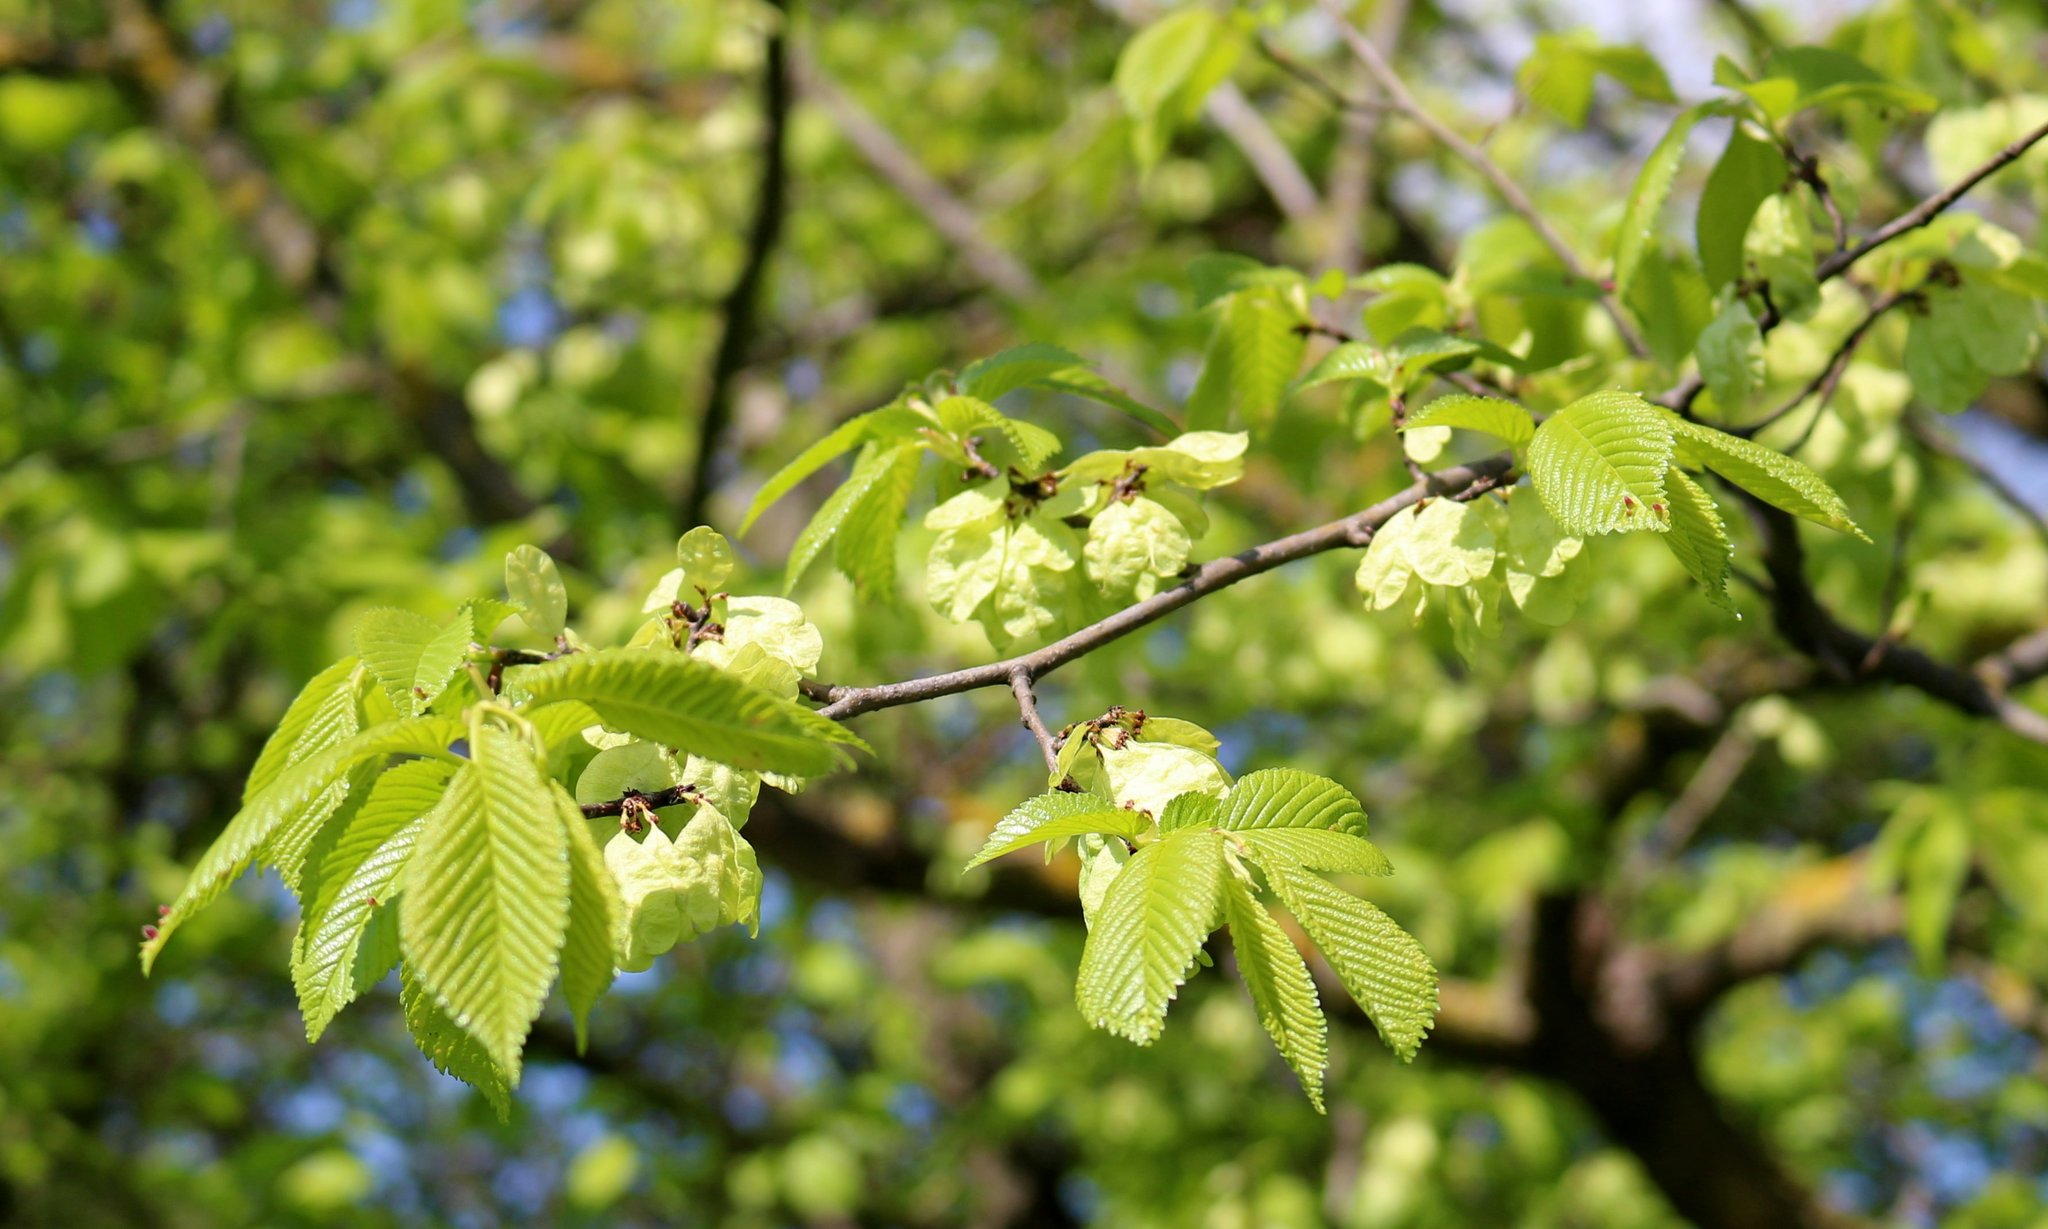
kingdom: Plantae
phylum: Tracheophyta
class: Magnoliopsida
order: Rosales
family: Ulmaceae
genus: Ulmus
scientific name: Ulmus minor
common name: Small-leaved elm
